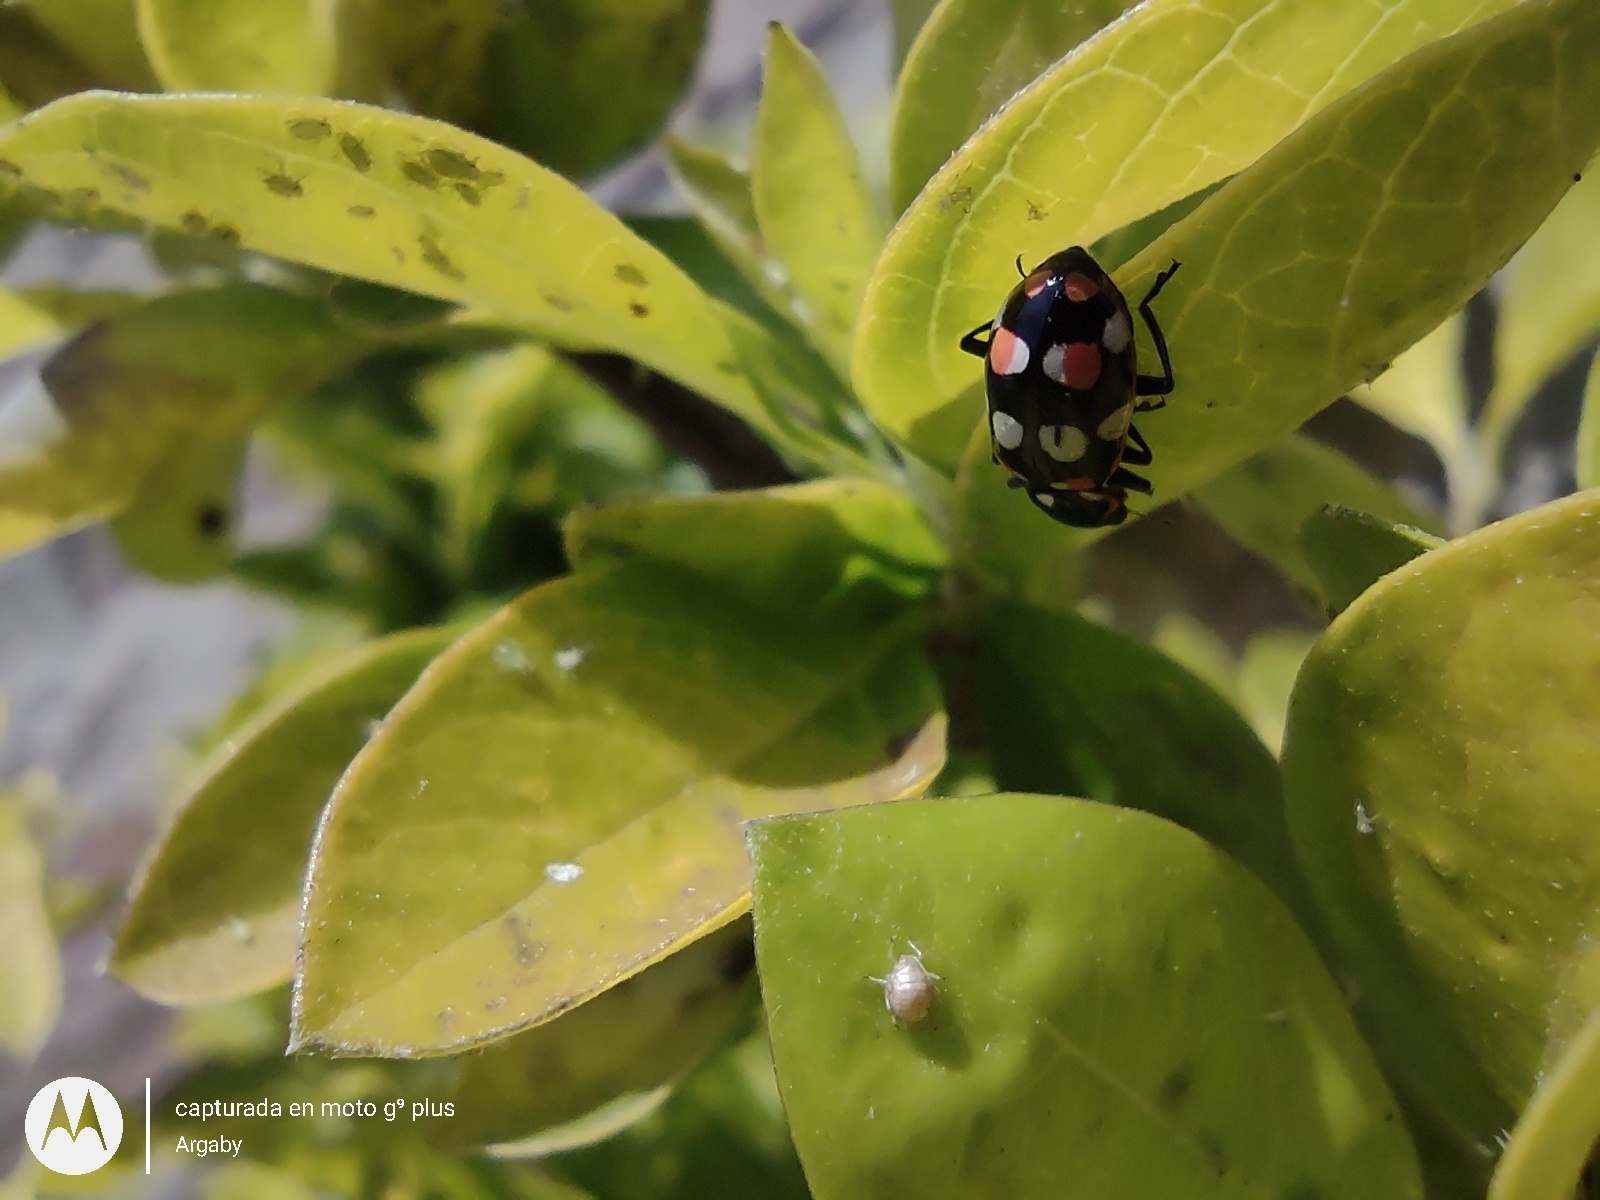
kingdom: Animalia
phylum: Arthropoda
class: Insecta
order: Coleoptera
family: Coccinellidae
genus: Eriopis
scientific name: Eriopis connexa
